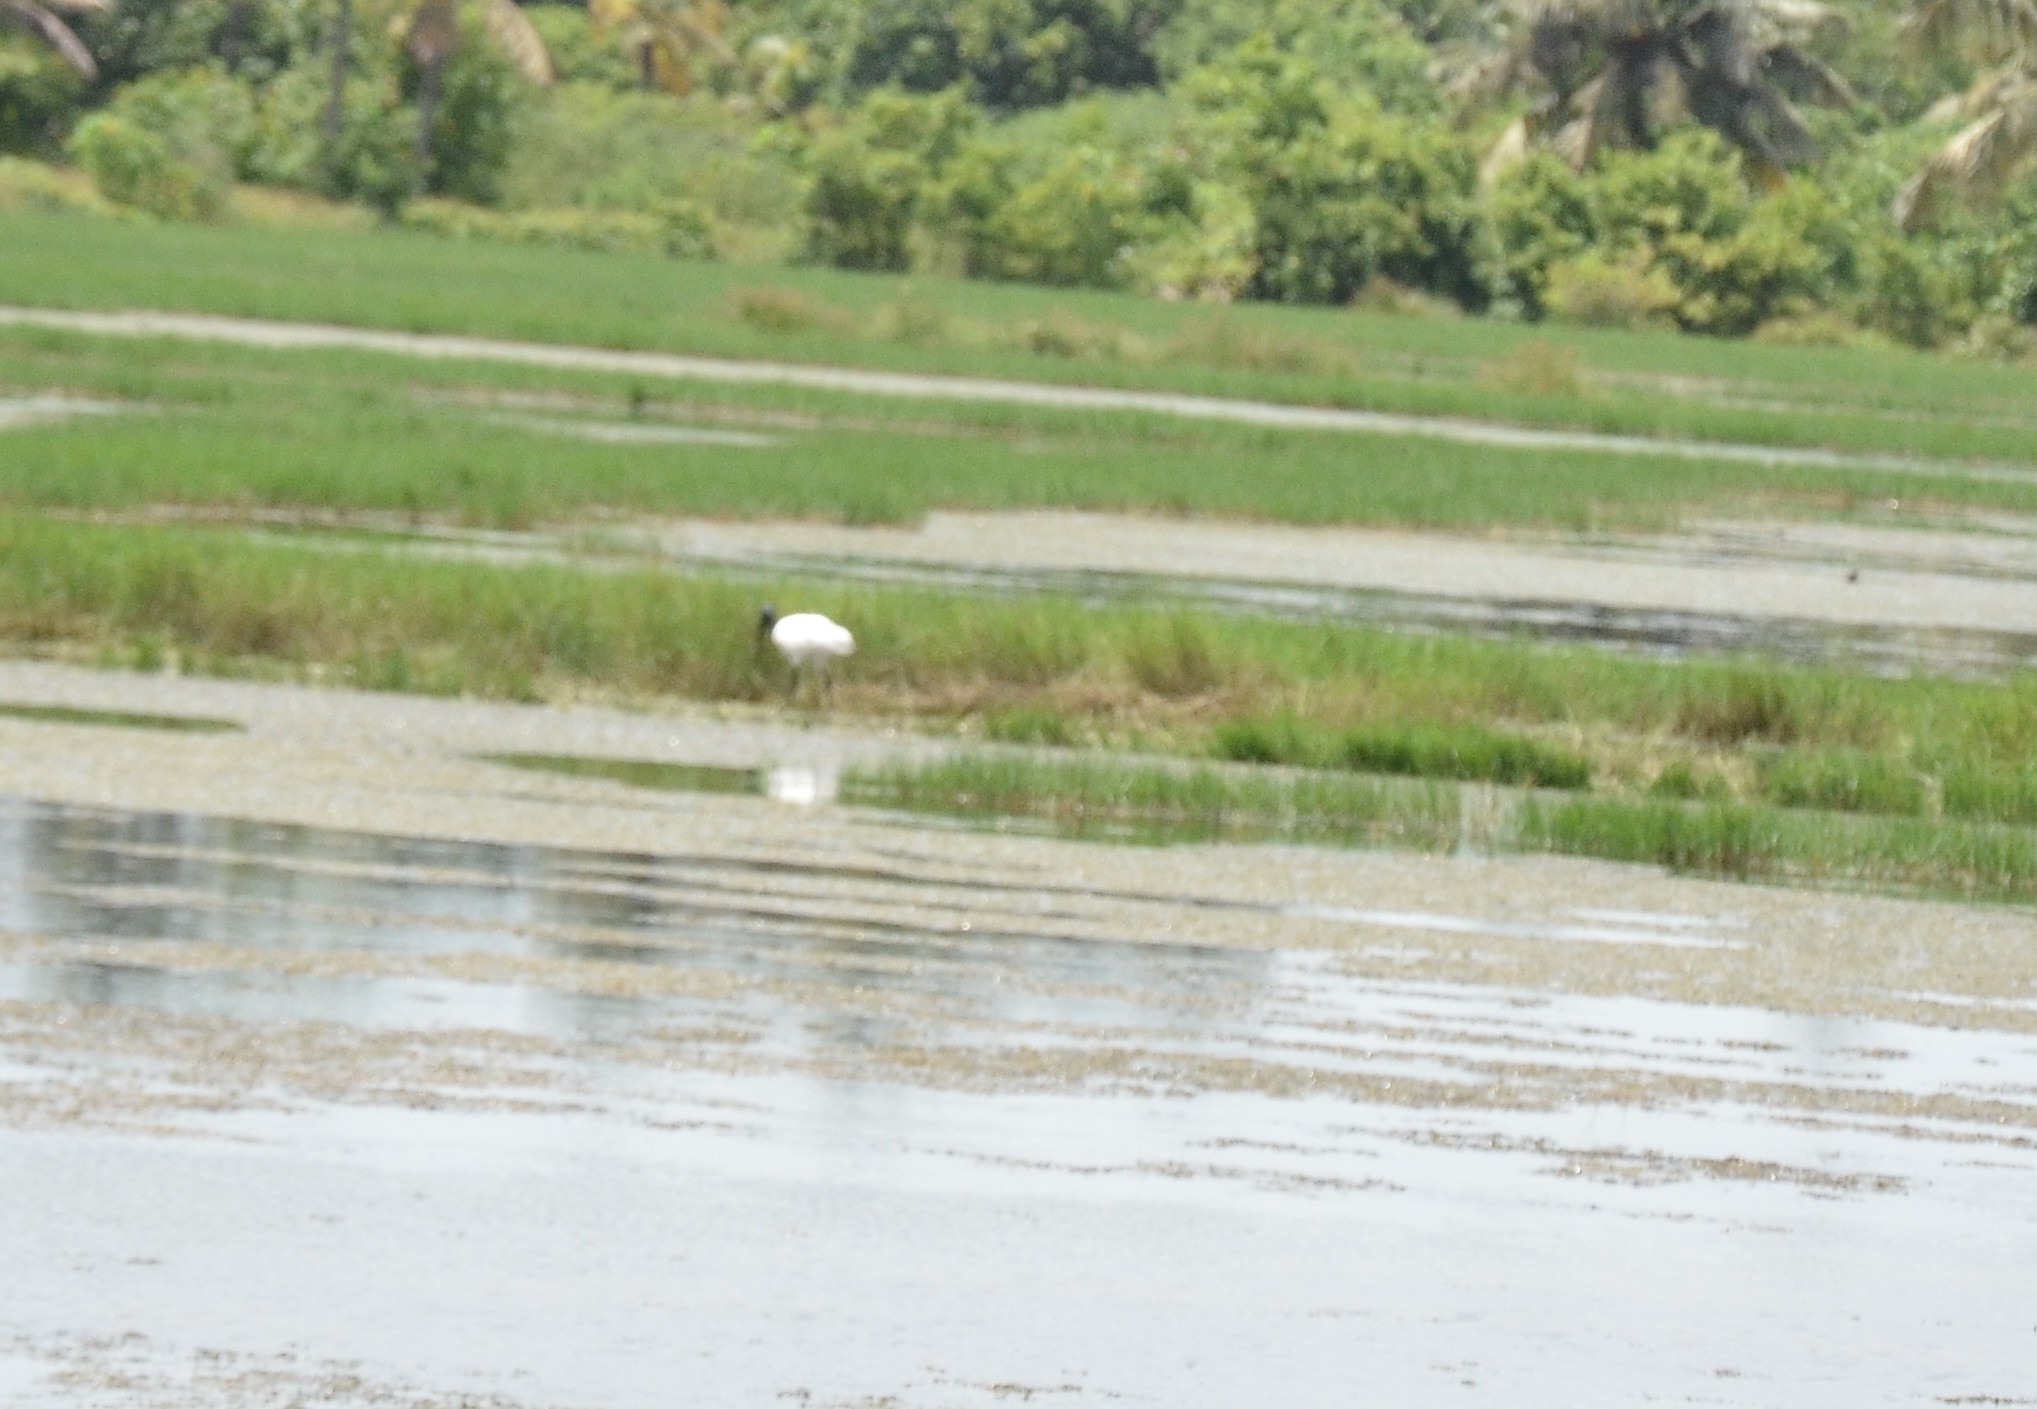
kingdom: Animalia
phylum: Chordata
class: Aves
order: Pelecaniformes
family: Threskiornithidae
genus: Threskiornis
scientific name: Threskiornis melanocephalus
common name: Black-headed ibis
